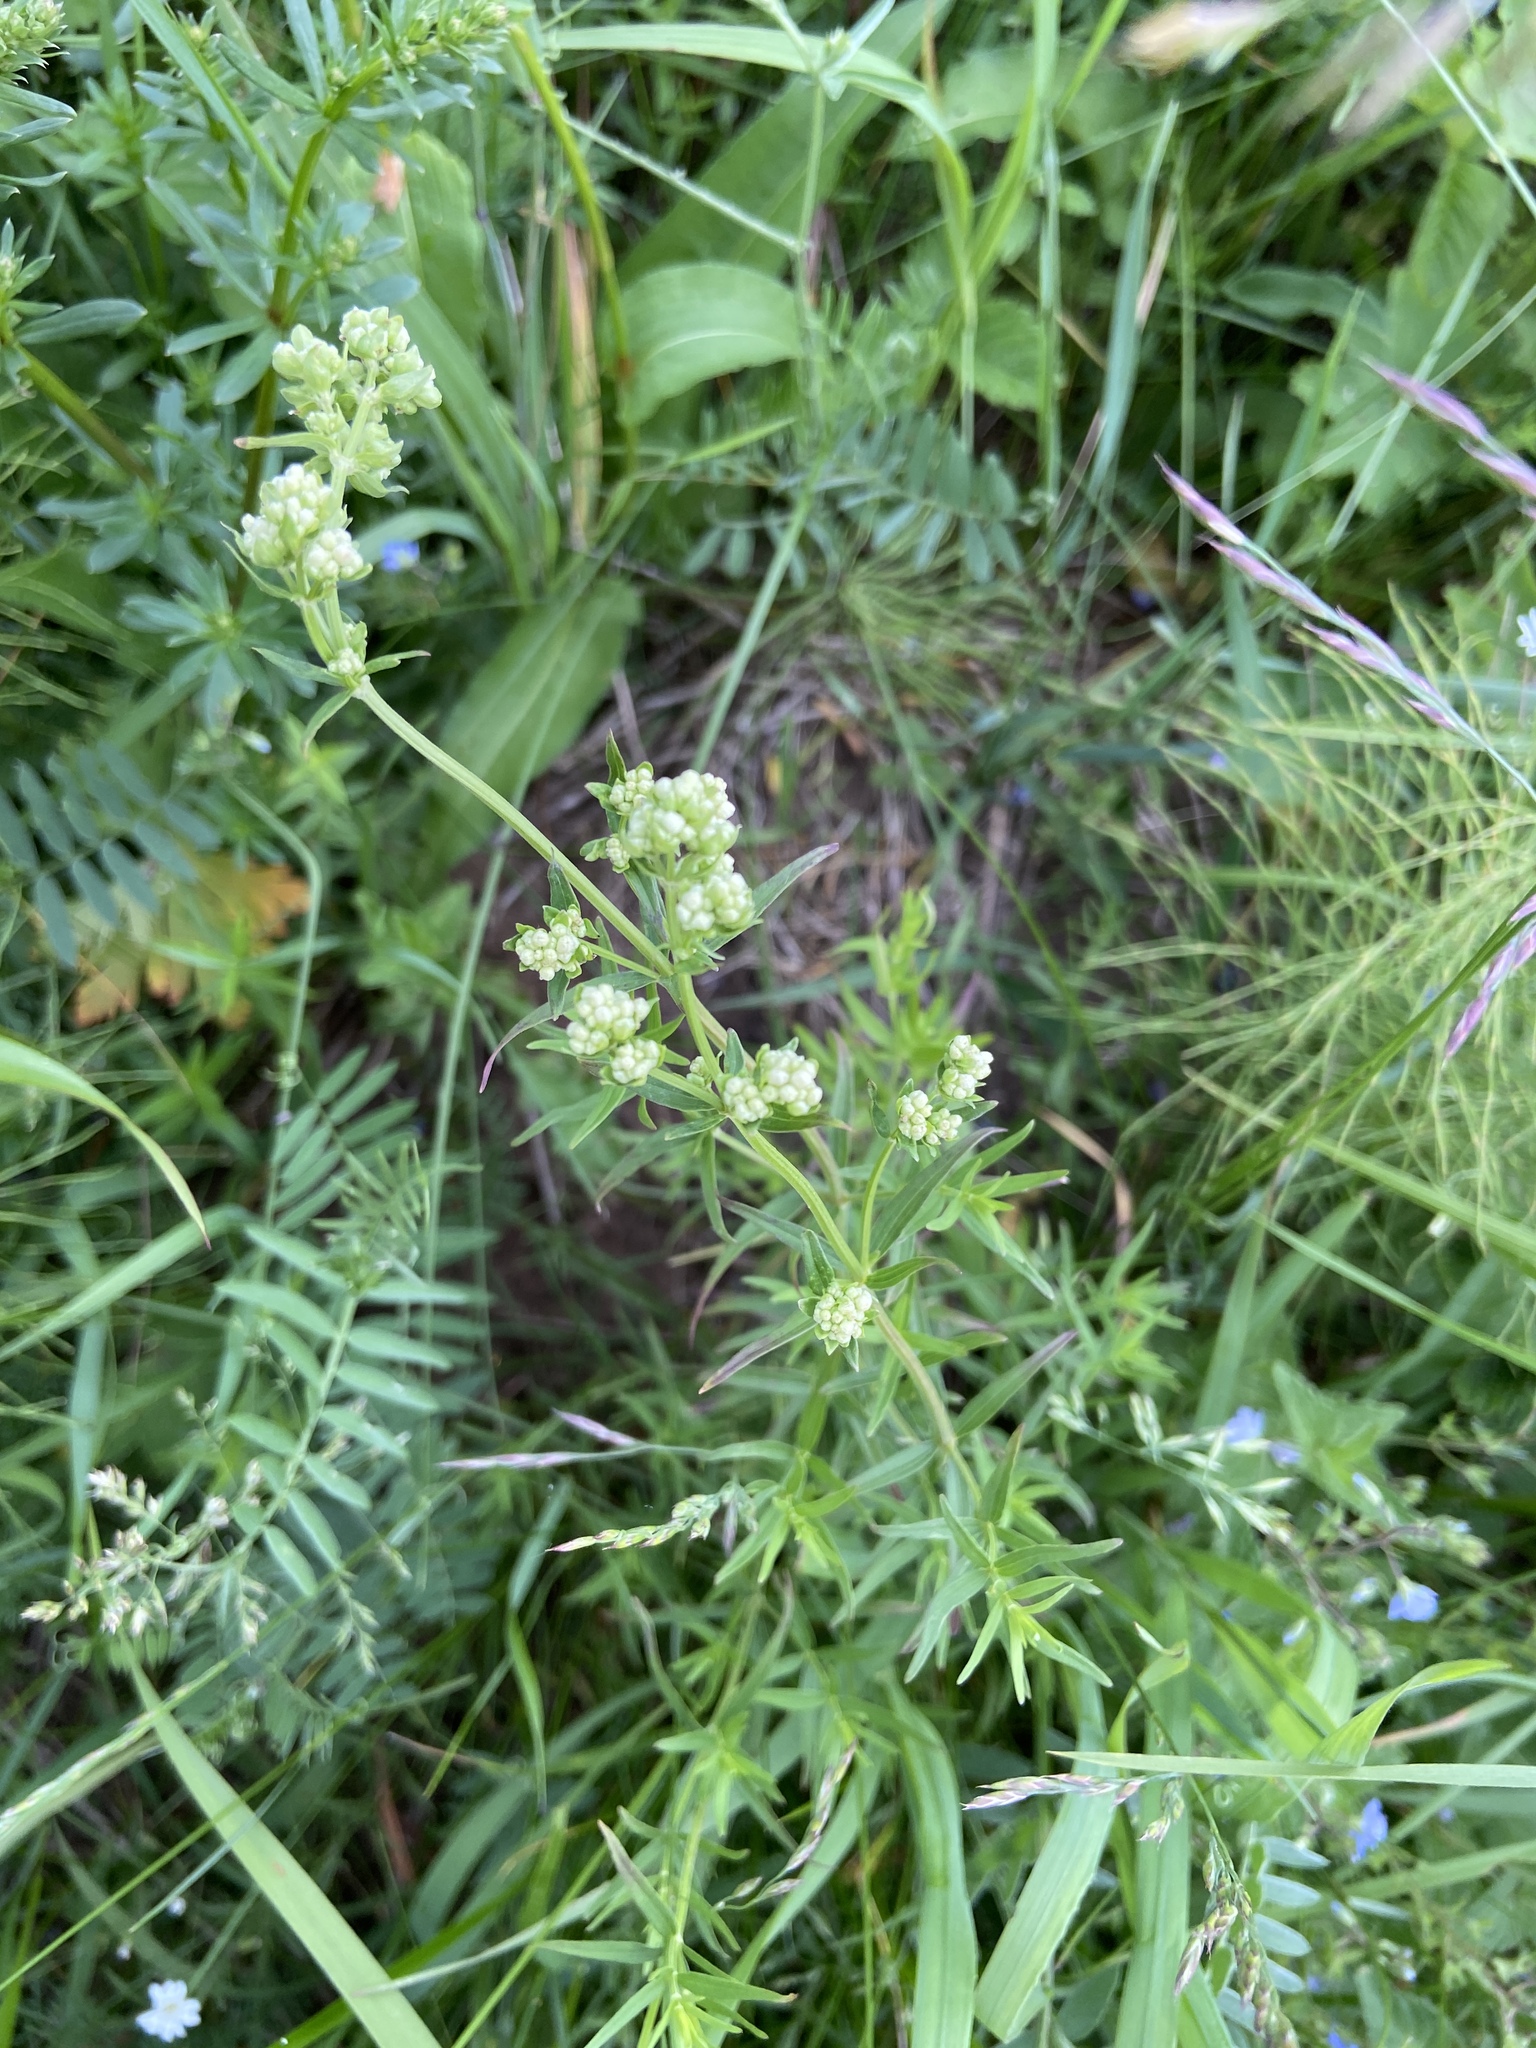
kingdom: Plantae
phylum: Tracheophyta
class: Magnoliopsida
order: Gentianales
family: Rubiaceae
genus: Galium
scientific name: Galium boreale
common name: Northern bedstraw
